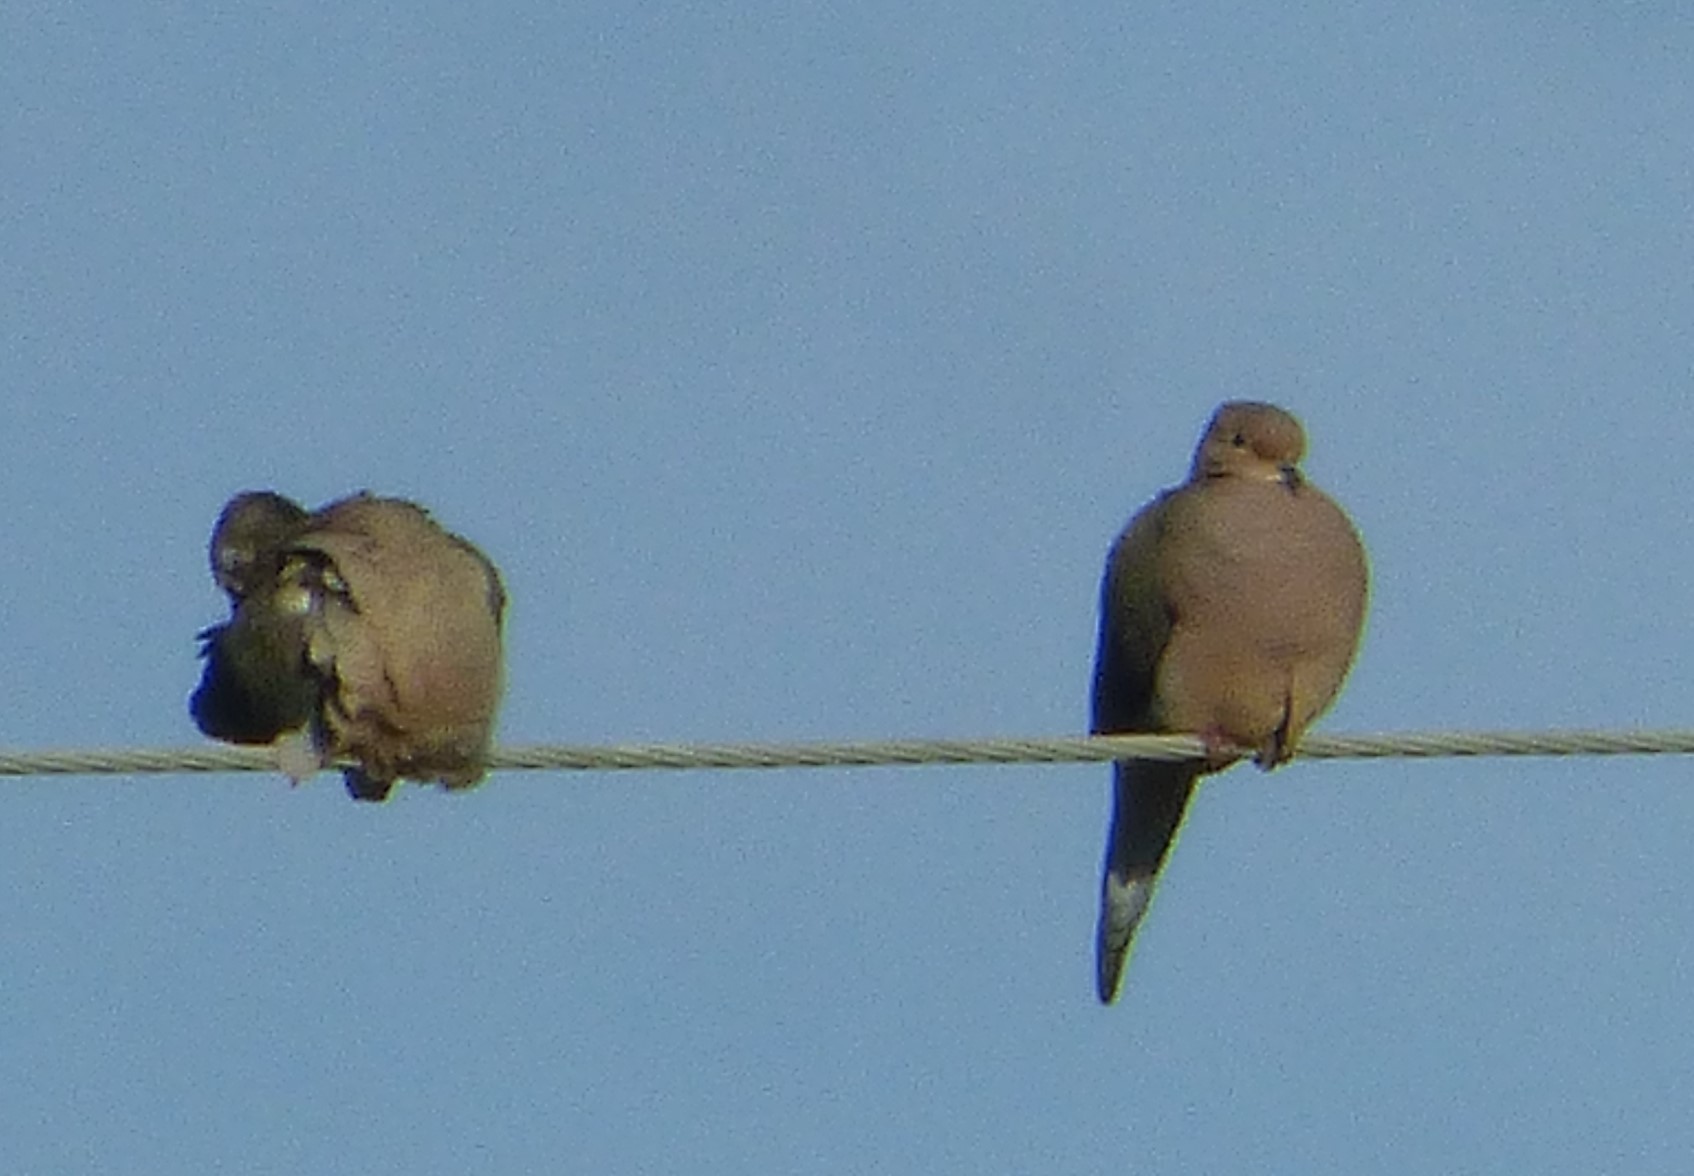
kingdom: Animalia
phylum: Chordata
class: Aves
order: Columbiformes
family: Columbidae
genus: Zenaida
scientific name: Zenaida macroura
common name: Mourning dove
